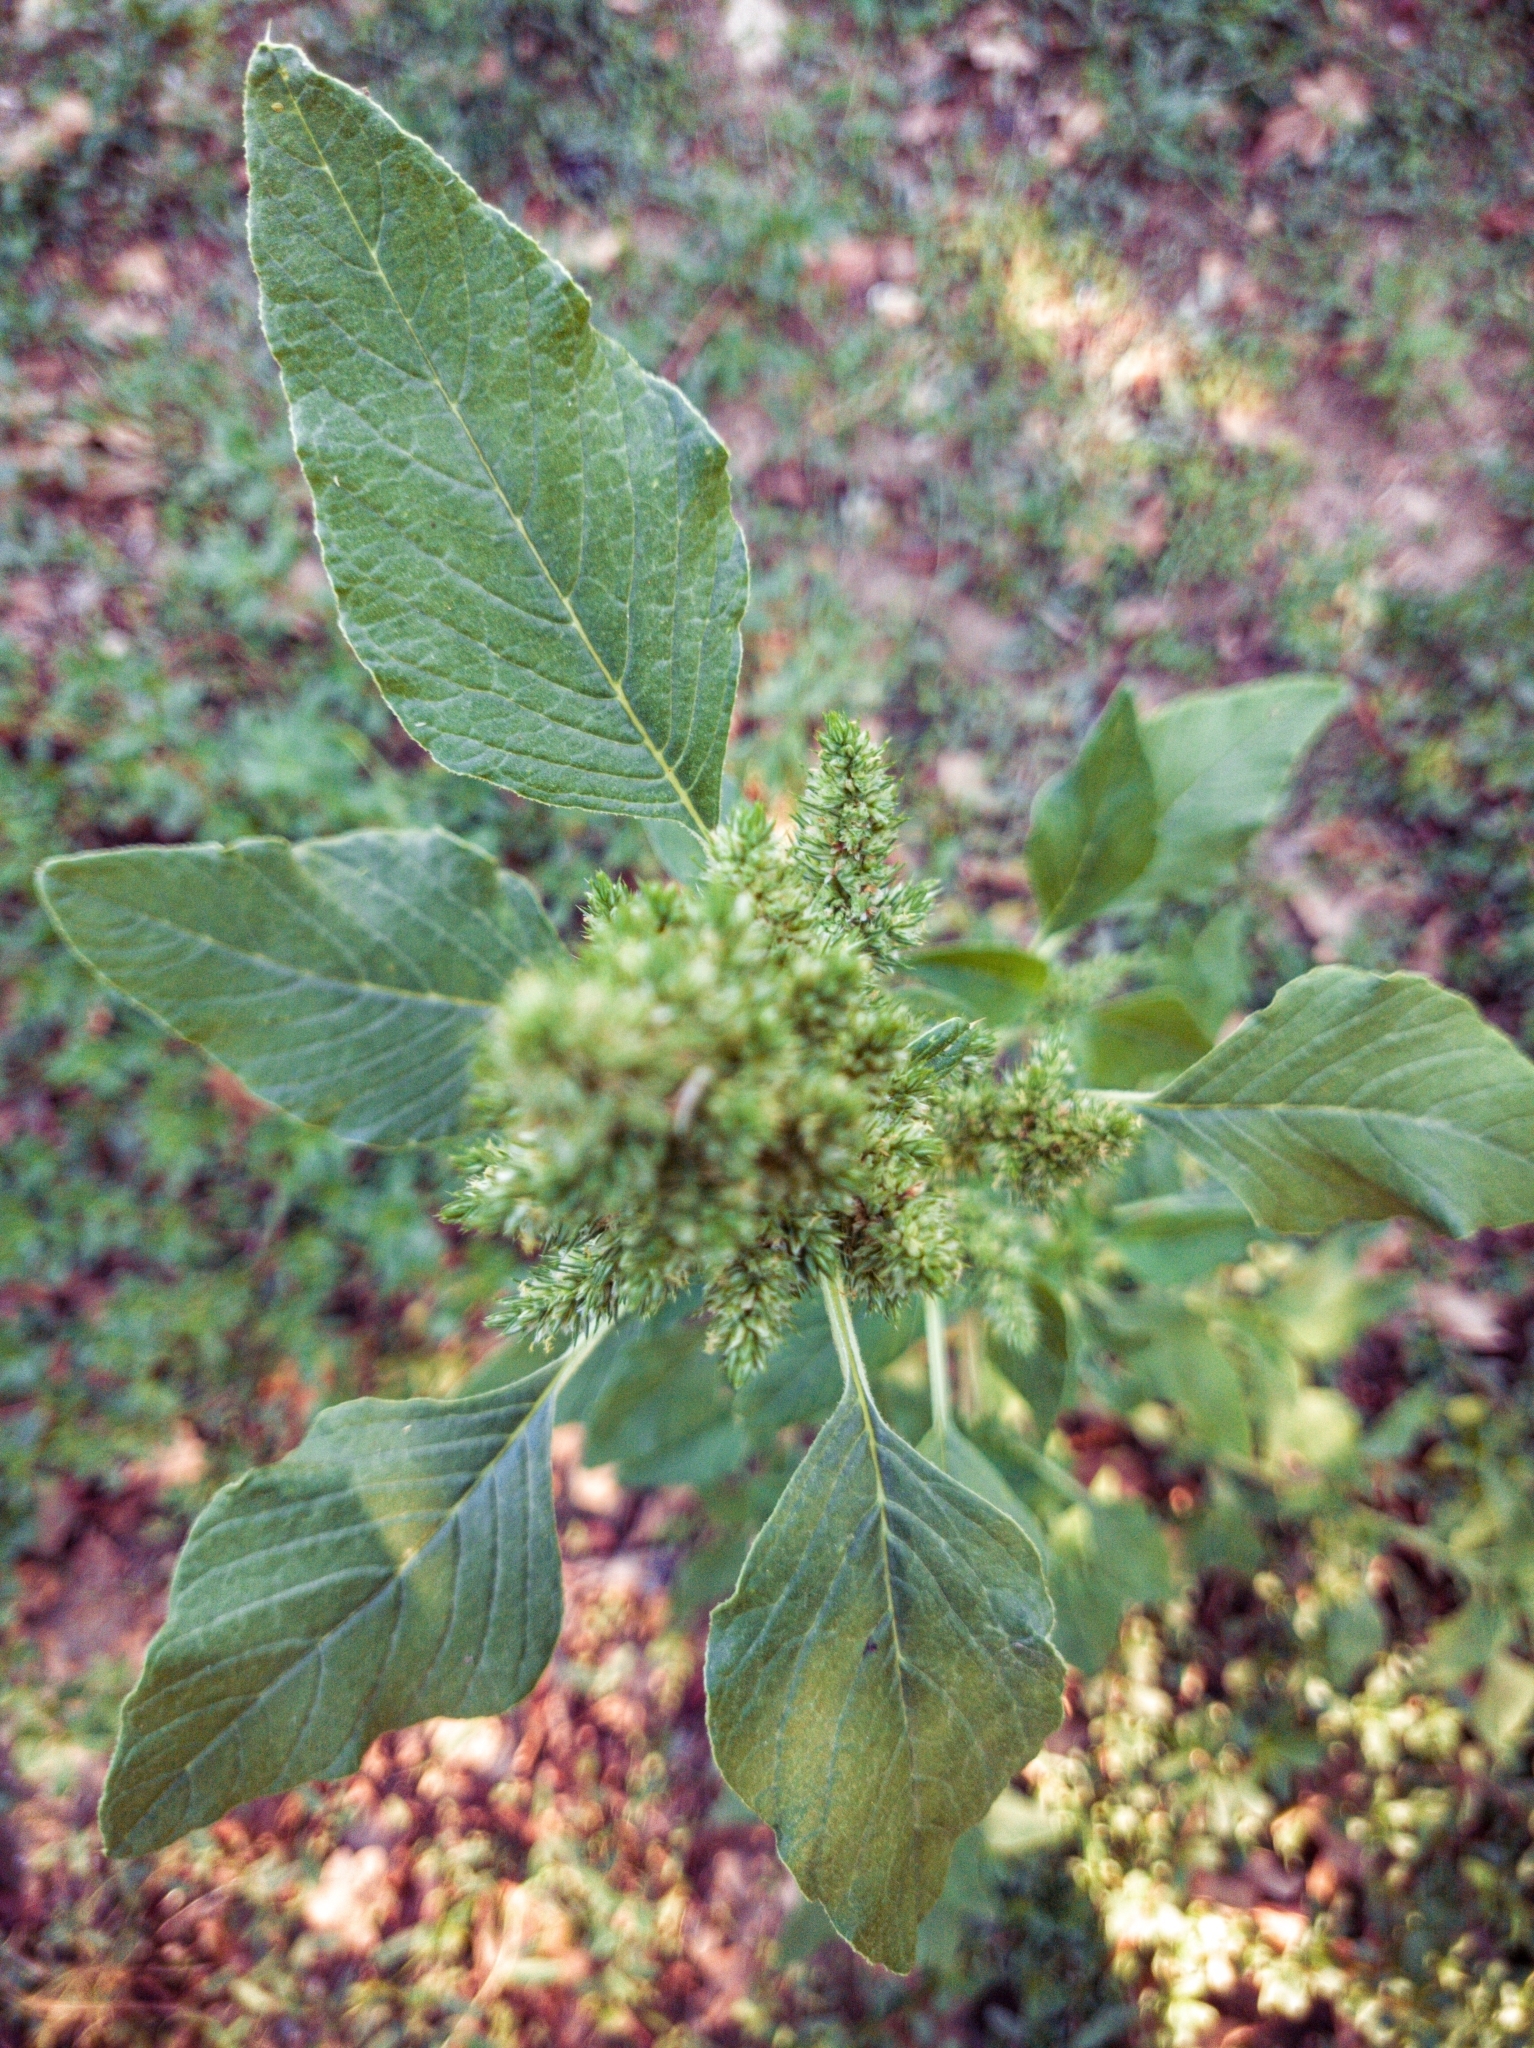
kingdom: Plantae
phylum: Tracheophyta
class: Magnoliopsida
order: Caryophyllales
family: Amaranthaceae
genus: Amaranthus
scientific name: Amaranthus retroflexus
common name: Redroot amaranth
